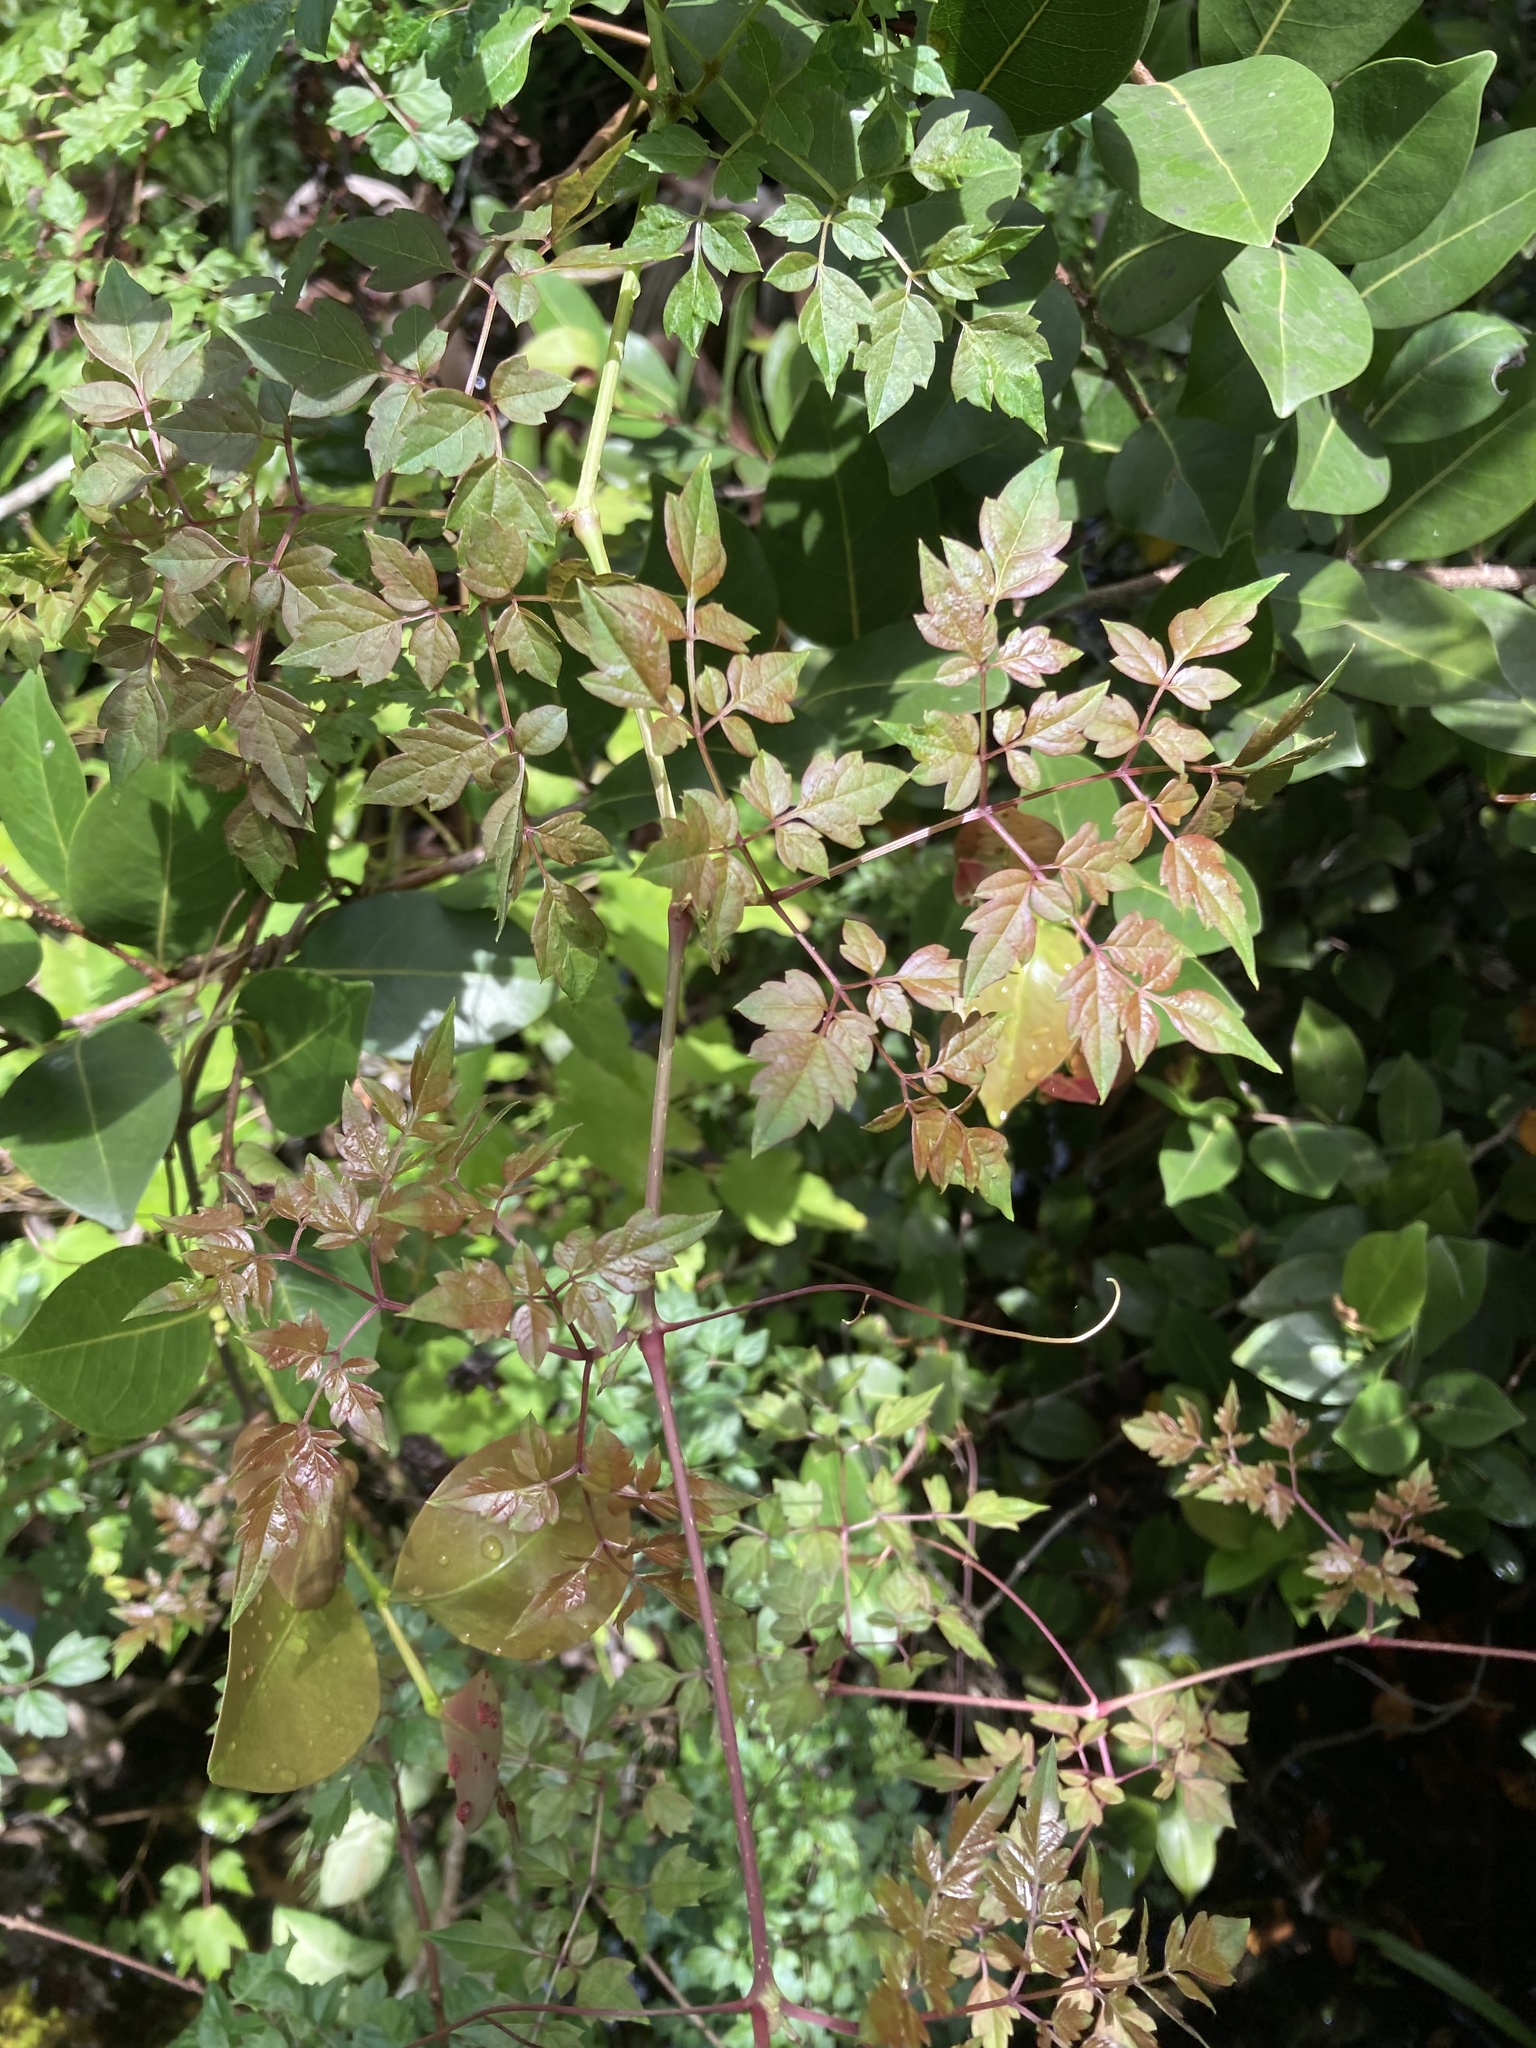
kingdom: Plantae
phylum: Tracheophyta
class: Magnoliopsida
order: Vitales
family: Vitaceae
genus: Nekemias
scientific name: Nekemias arborea
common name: Peppervine
